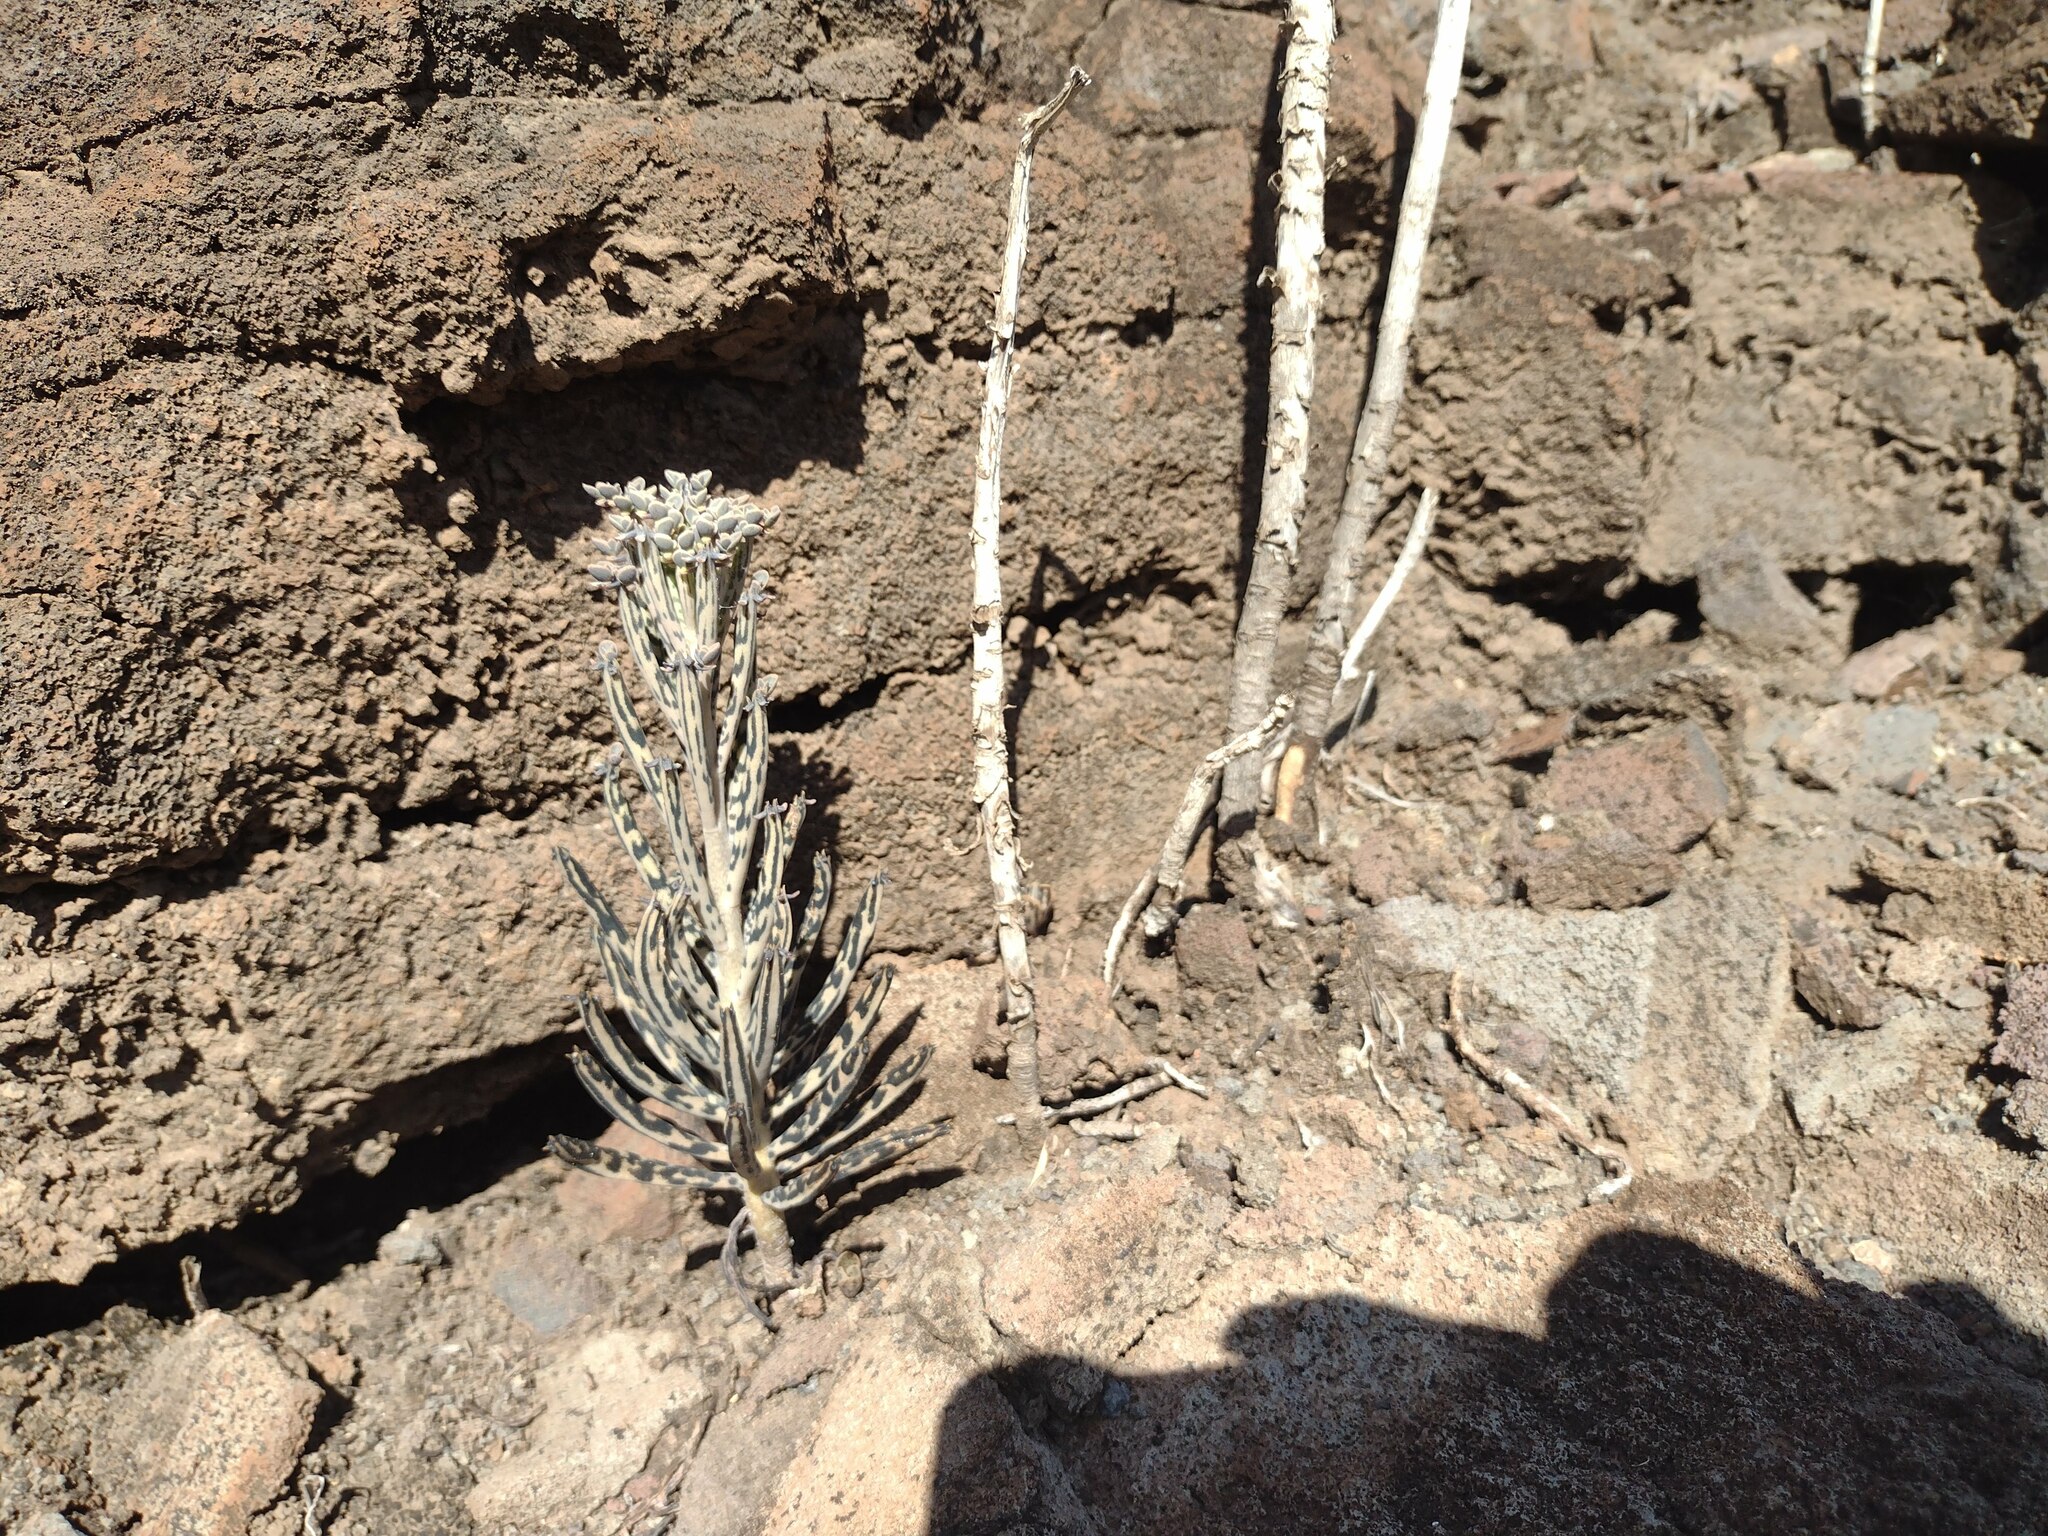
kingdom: Plantae
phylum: Tracheophyta
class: Magnoliopsida
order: Saxifragales
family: Crassulaceae
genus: Kalanchoe
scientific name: Kalanchoe delagoensis
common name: Chandelier plant
